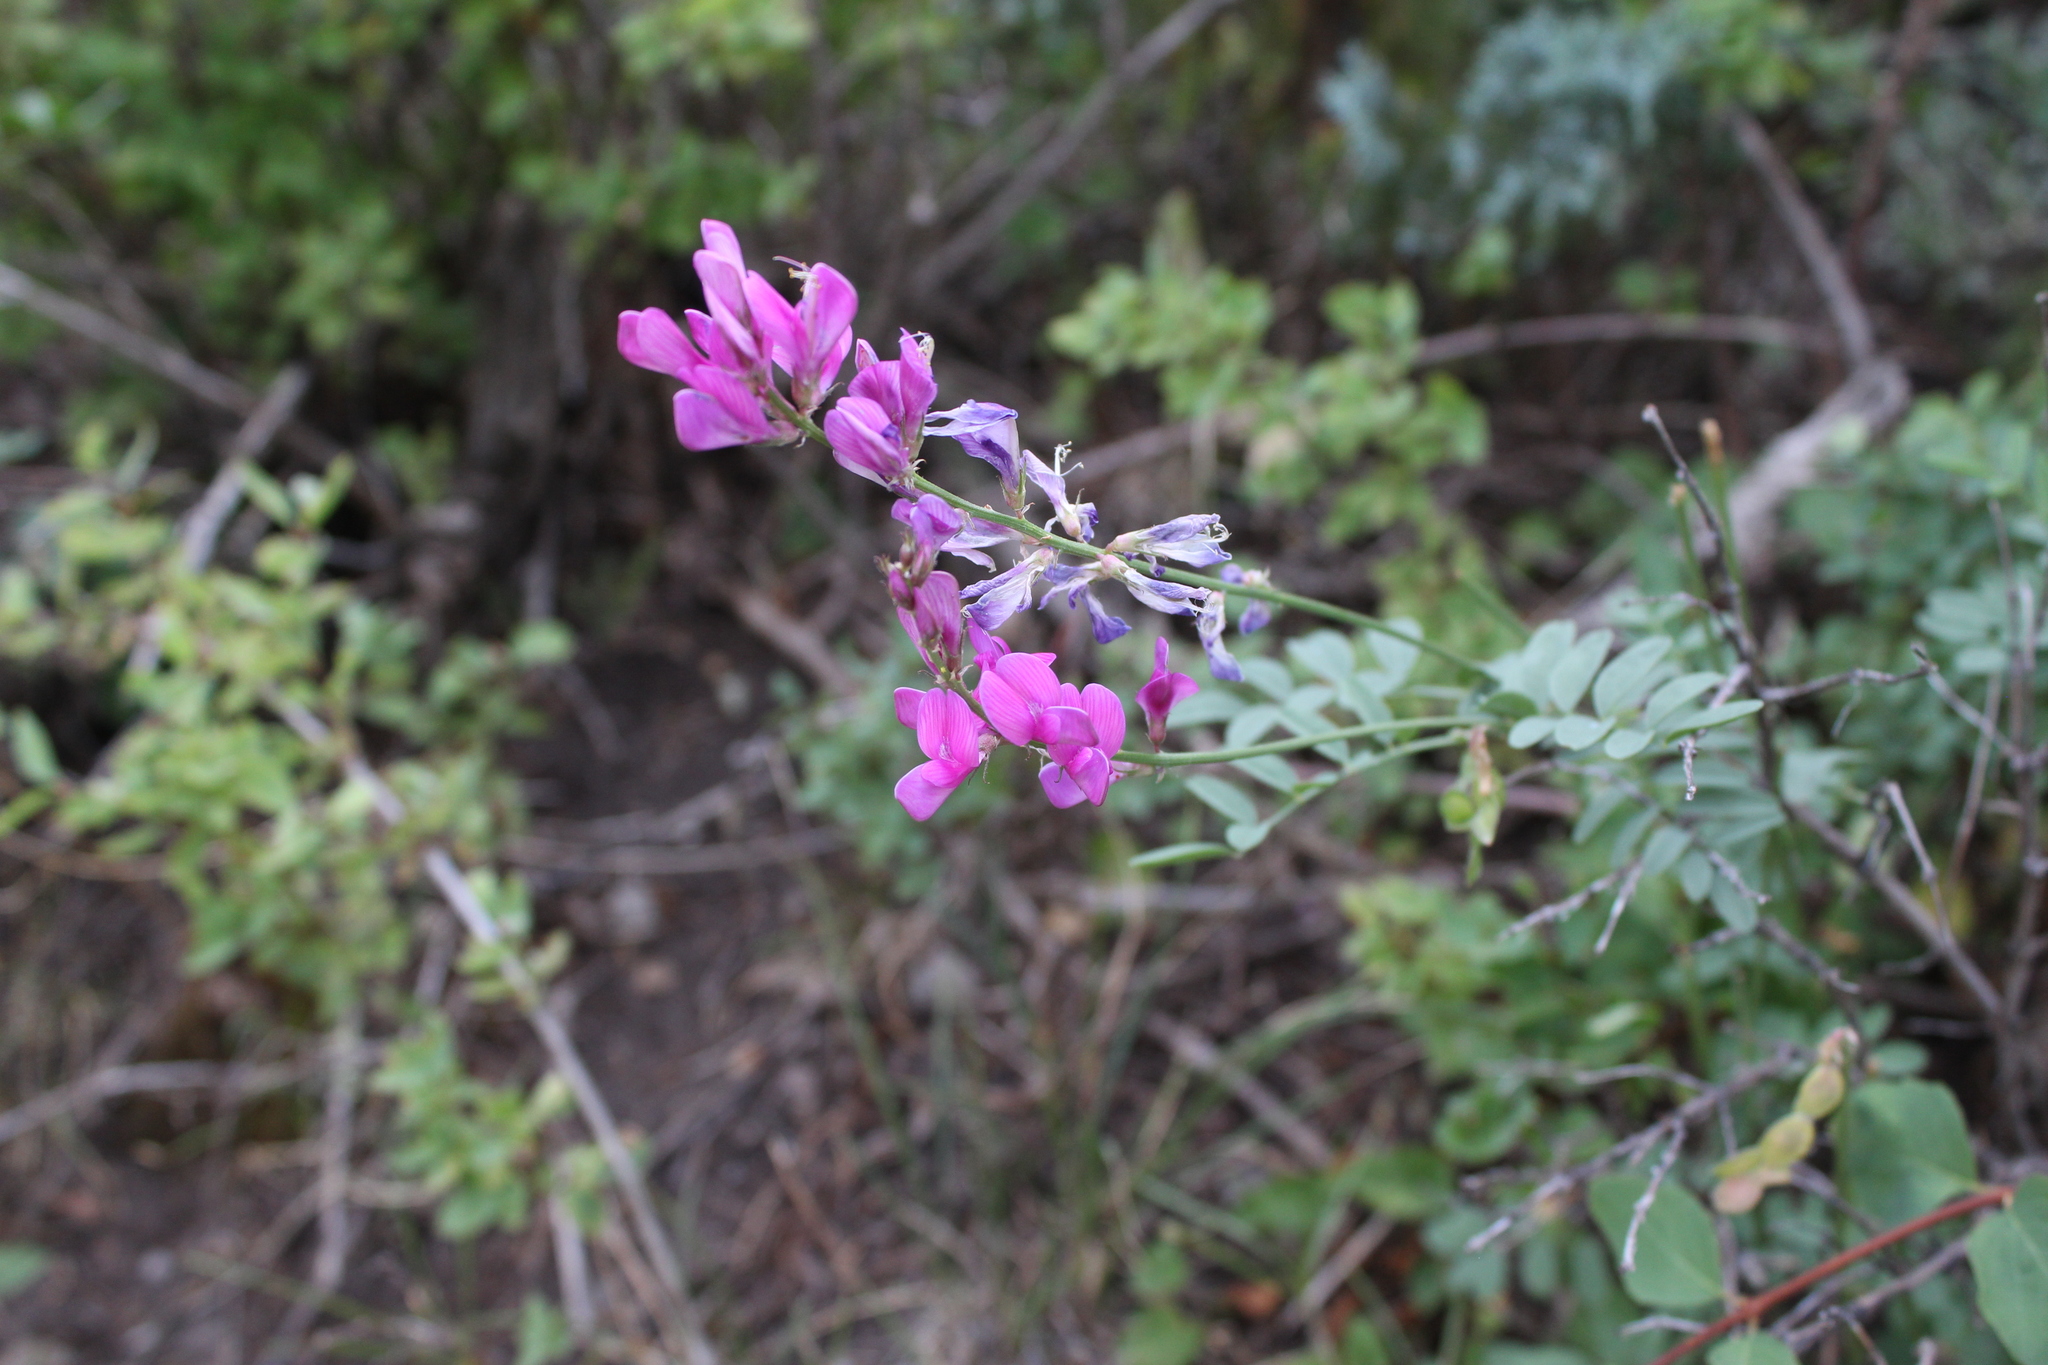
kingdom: Plantae
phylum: Tracheophyta
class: Magnoliopsida
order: Fabales
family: Fabaceae
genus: Hedysarum
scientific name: Hedysarum boreale
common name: Northern sweet-vetch
